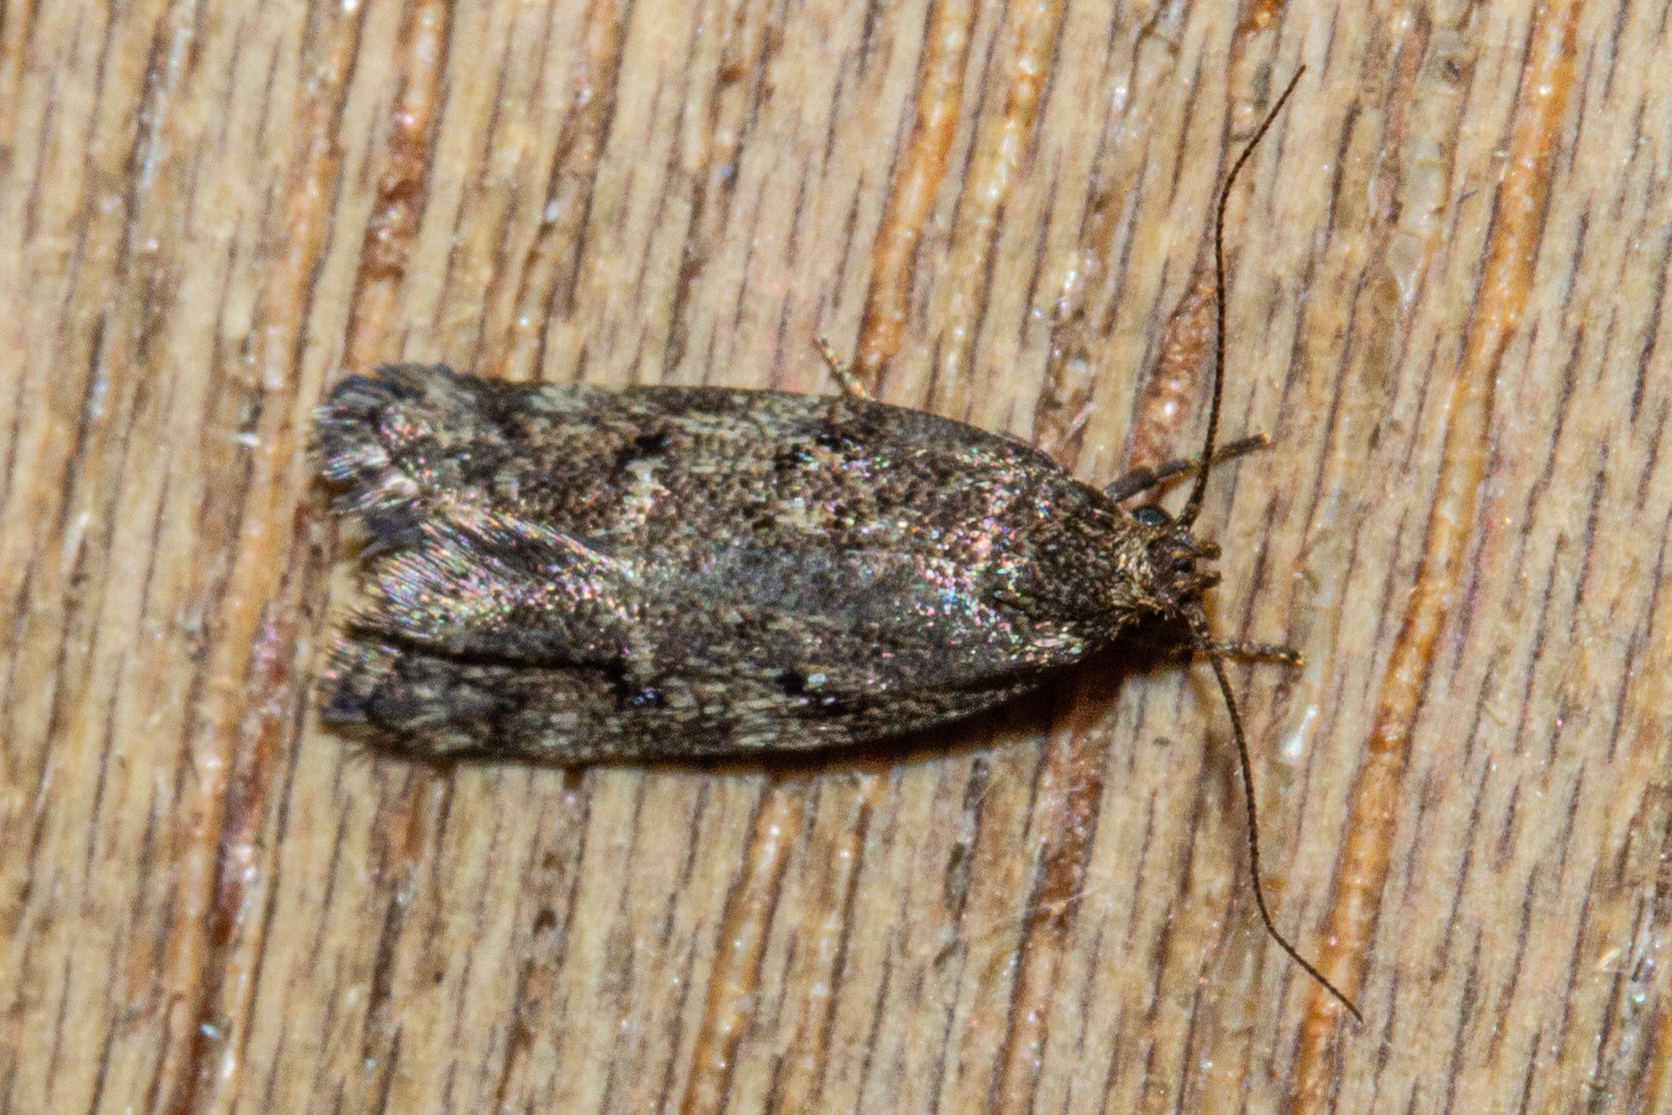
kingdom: Animalia
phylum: Arthropoda
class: Insecta
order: Lepidoptera
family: Oecophoridae
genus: Trachypepla
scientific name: Trachypepla anastrella
